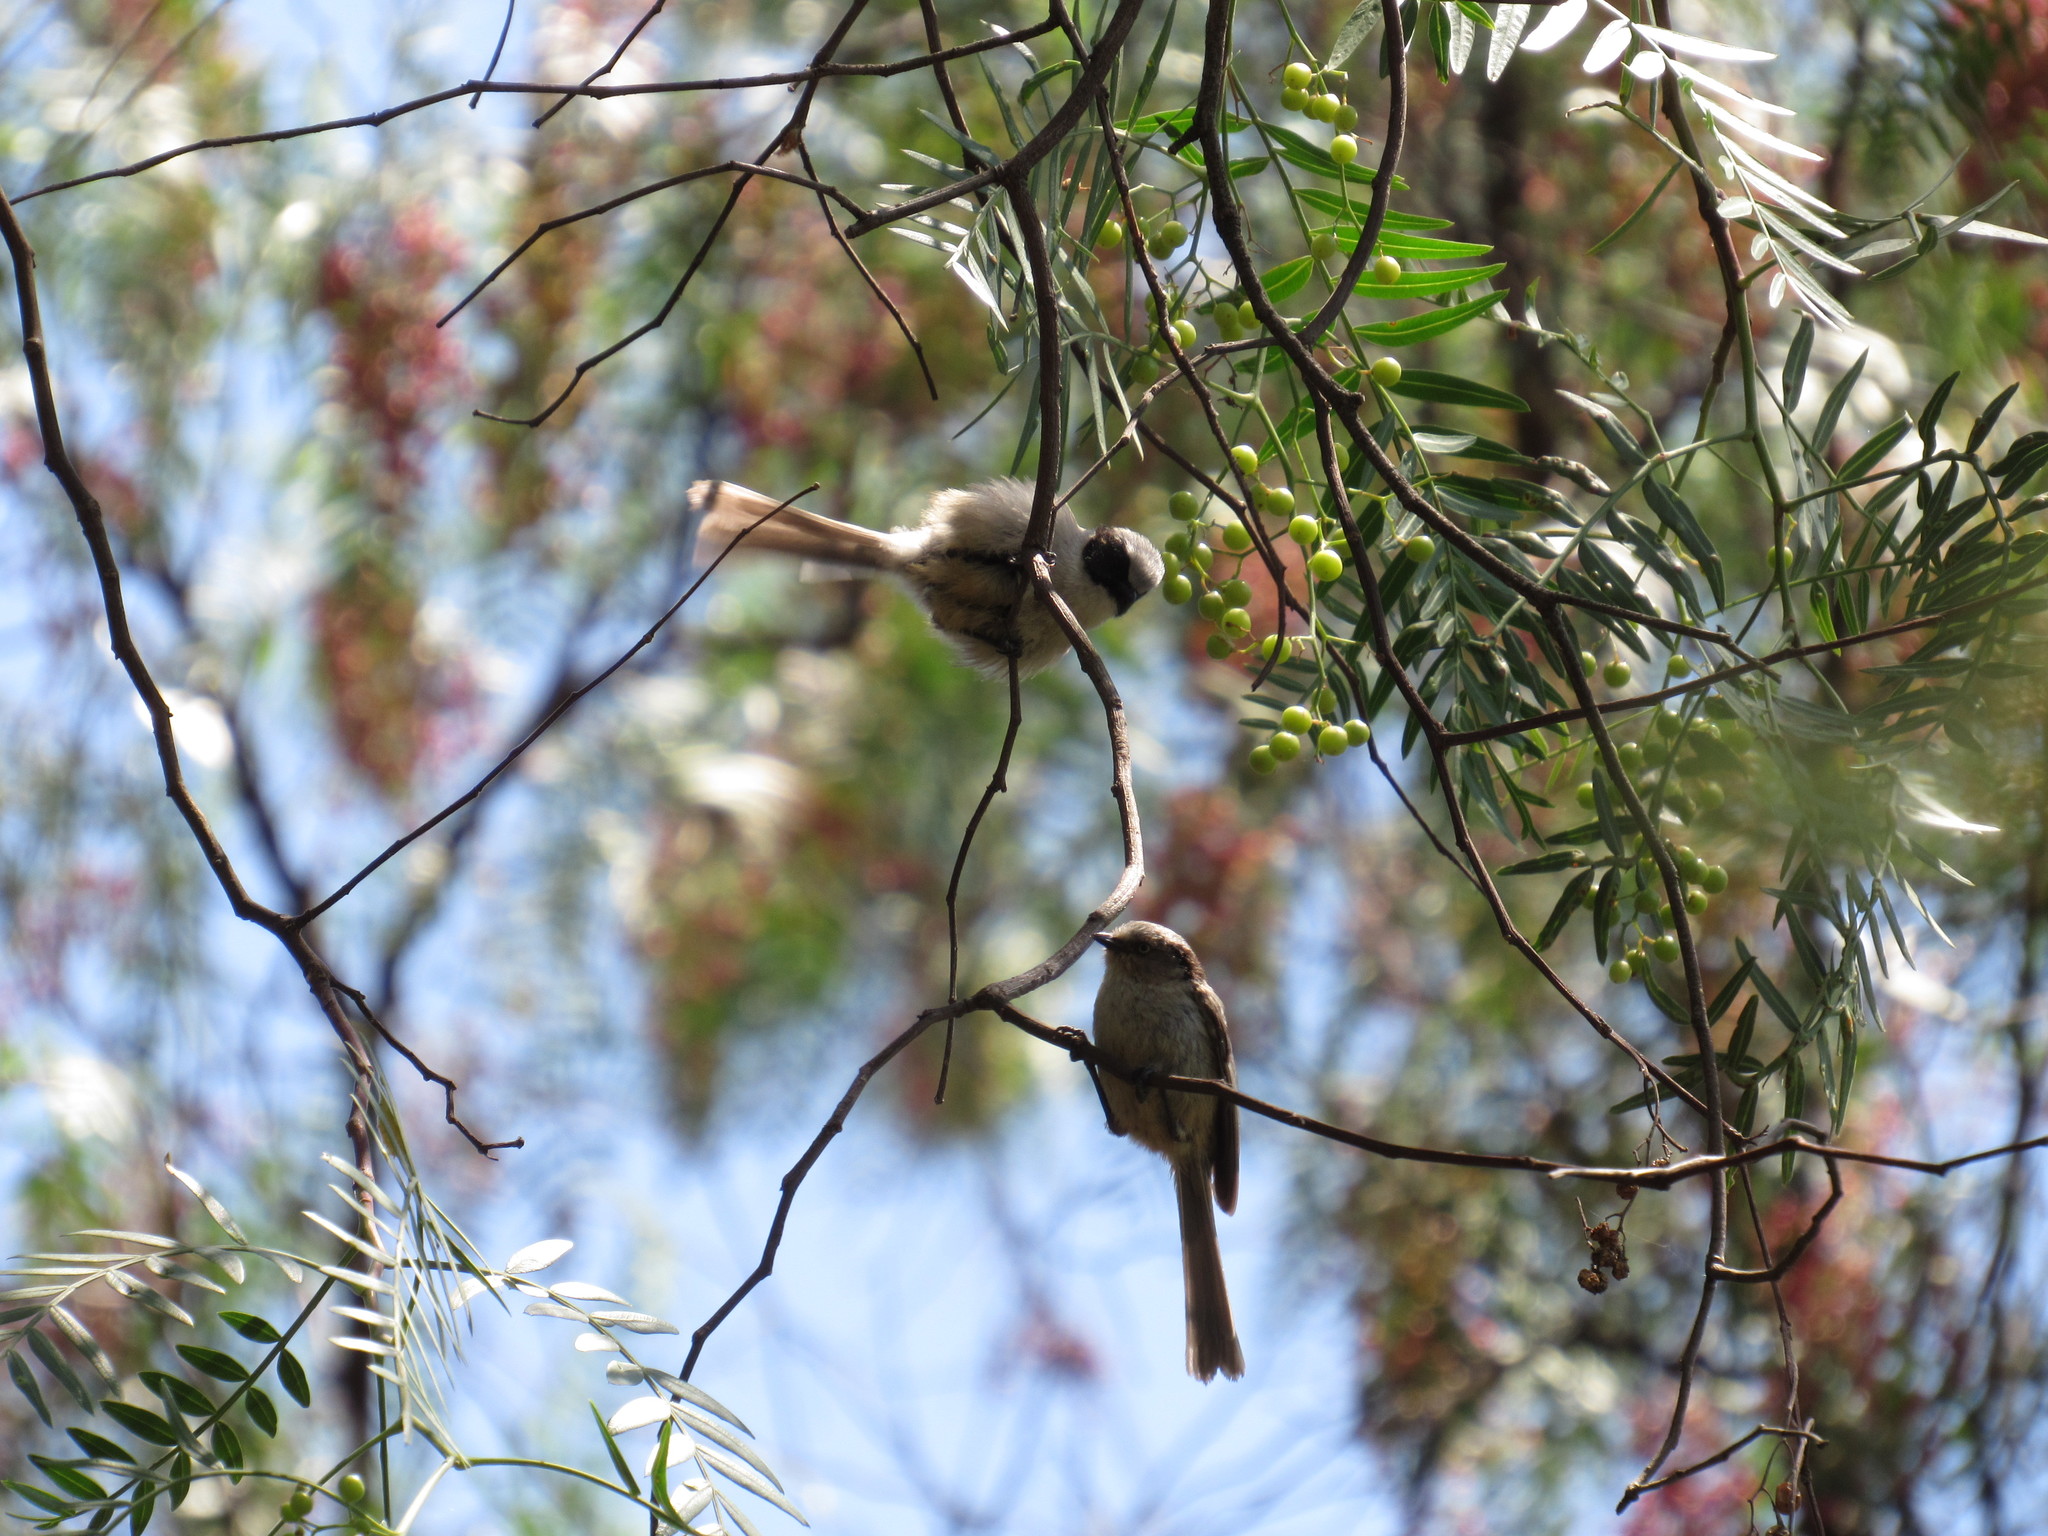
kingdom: Animalia
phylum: Chordata
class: Aves
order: Passeriformes
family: Aegithalidae
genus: Psaltriparus
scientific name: Psaltriparus minimus
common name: American bushtit
